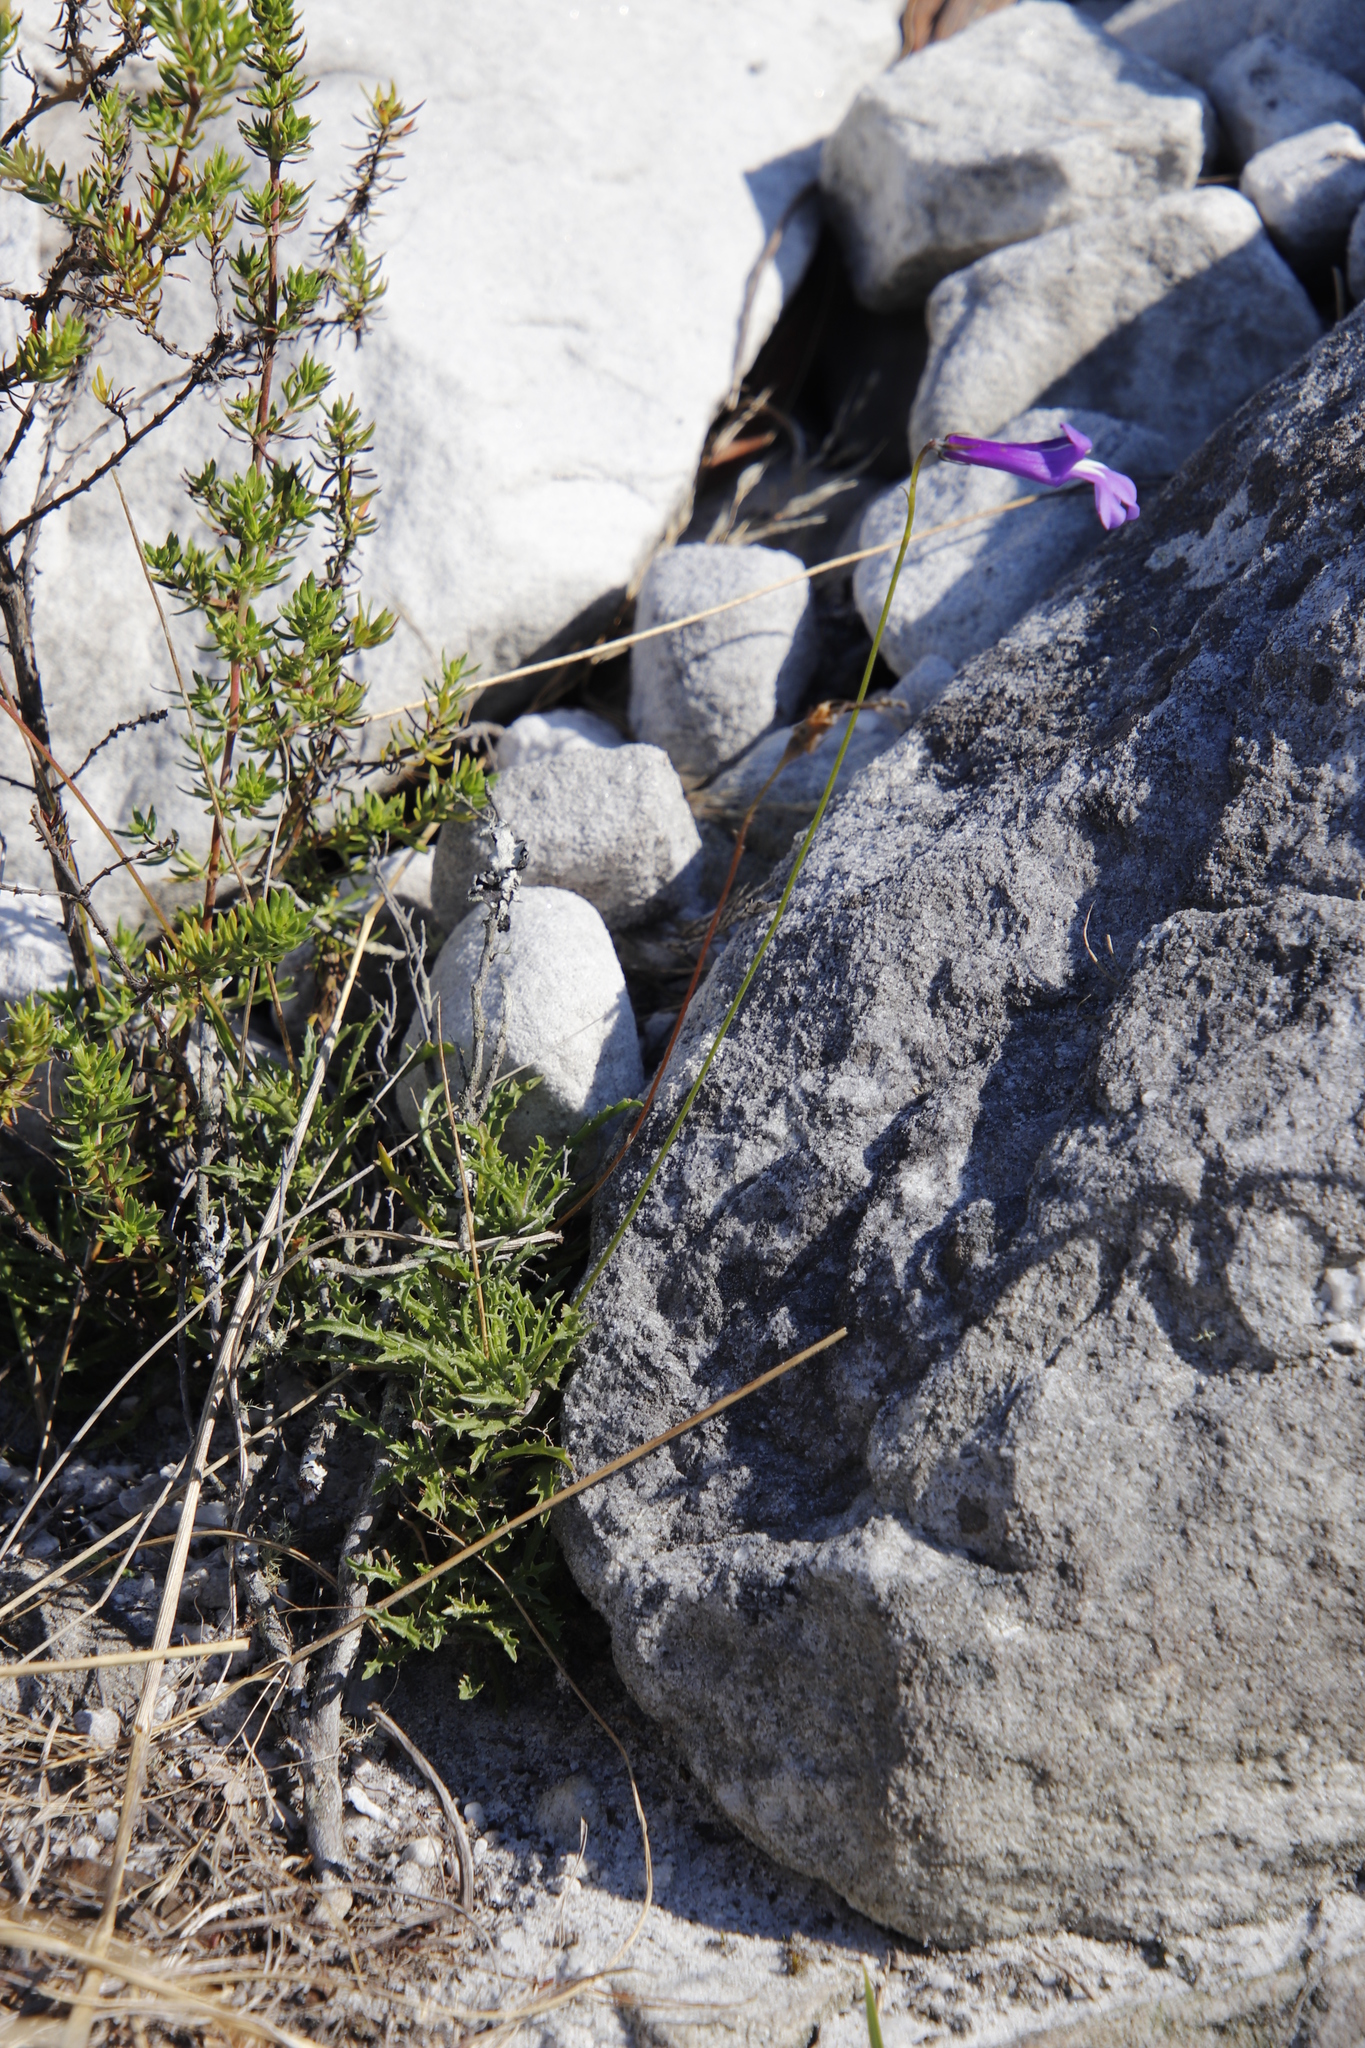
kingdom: Plantae
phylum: Tracheophyta
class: Magnoliopsida
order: Asterales
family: Campanulaceae
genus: Lobelia
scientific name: Lobelia coronopifolia
